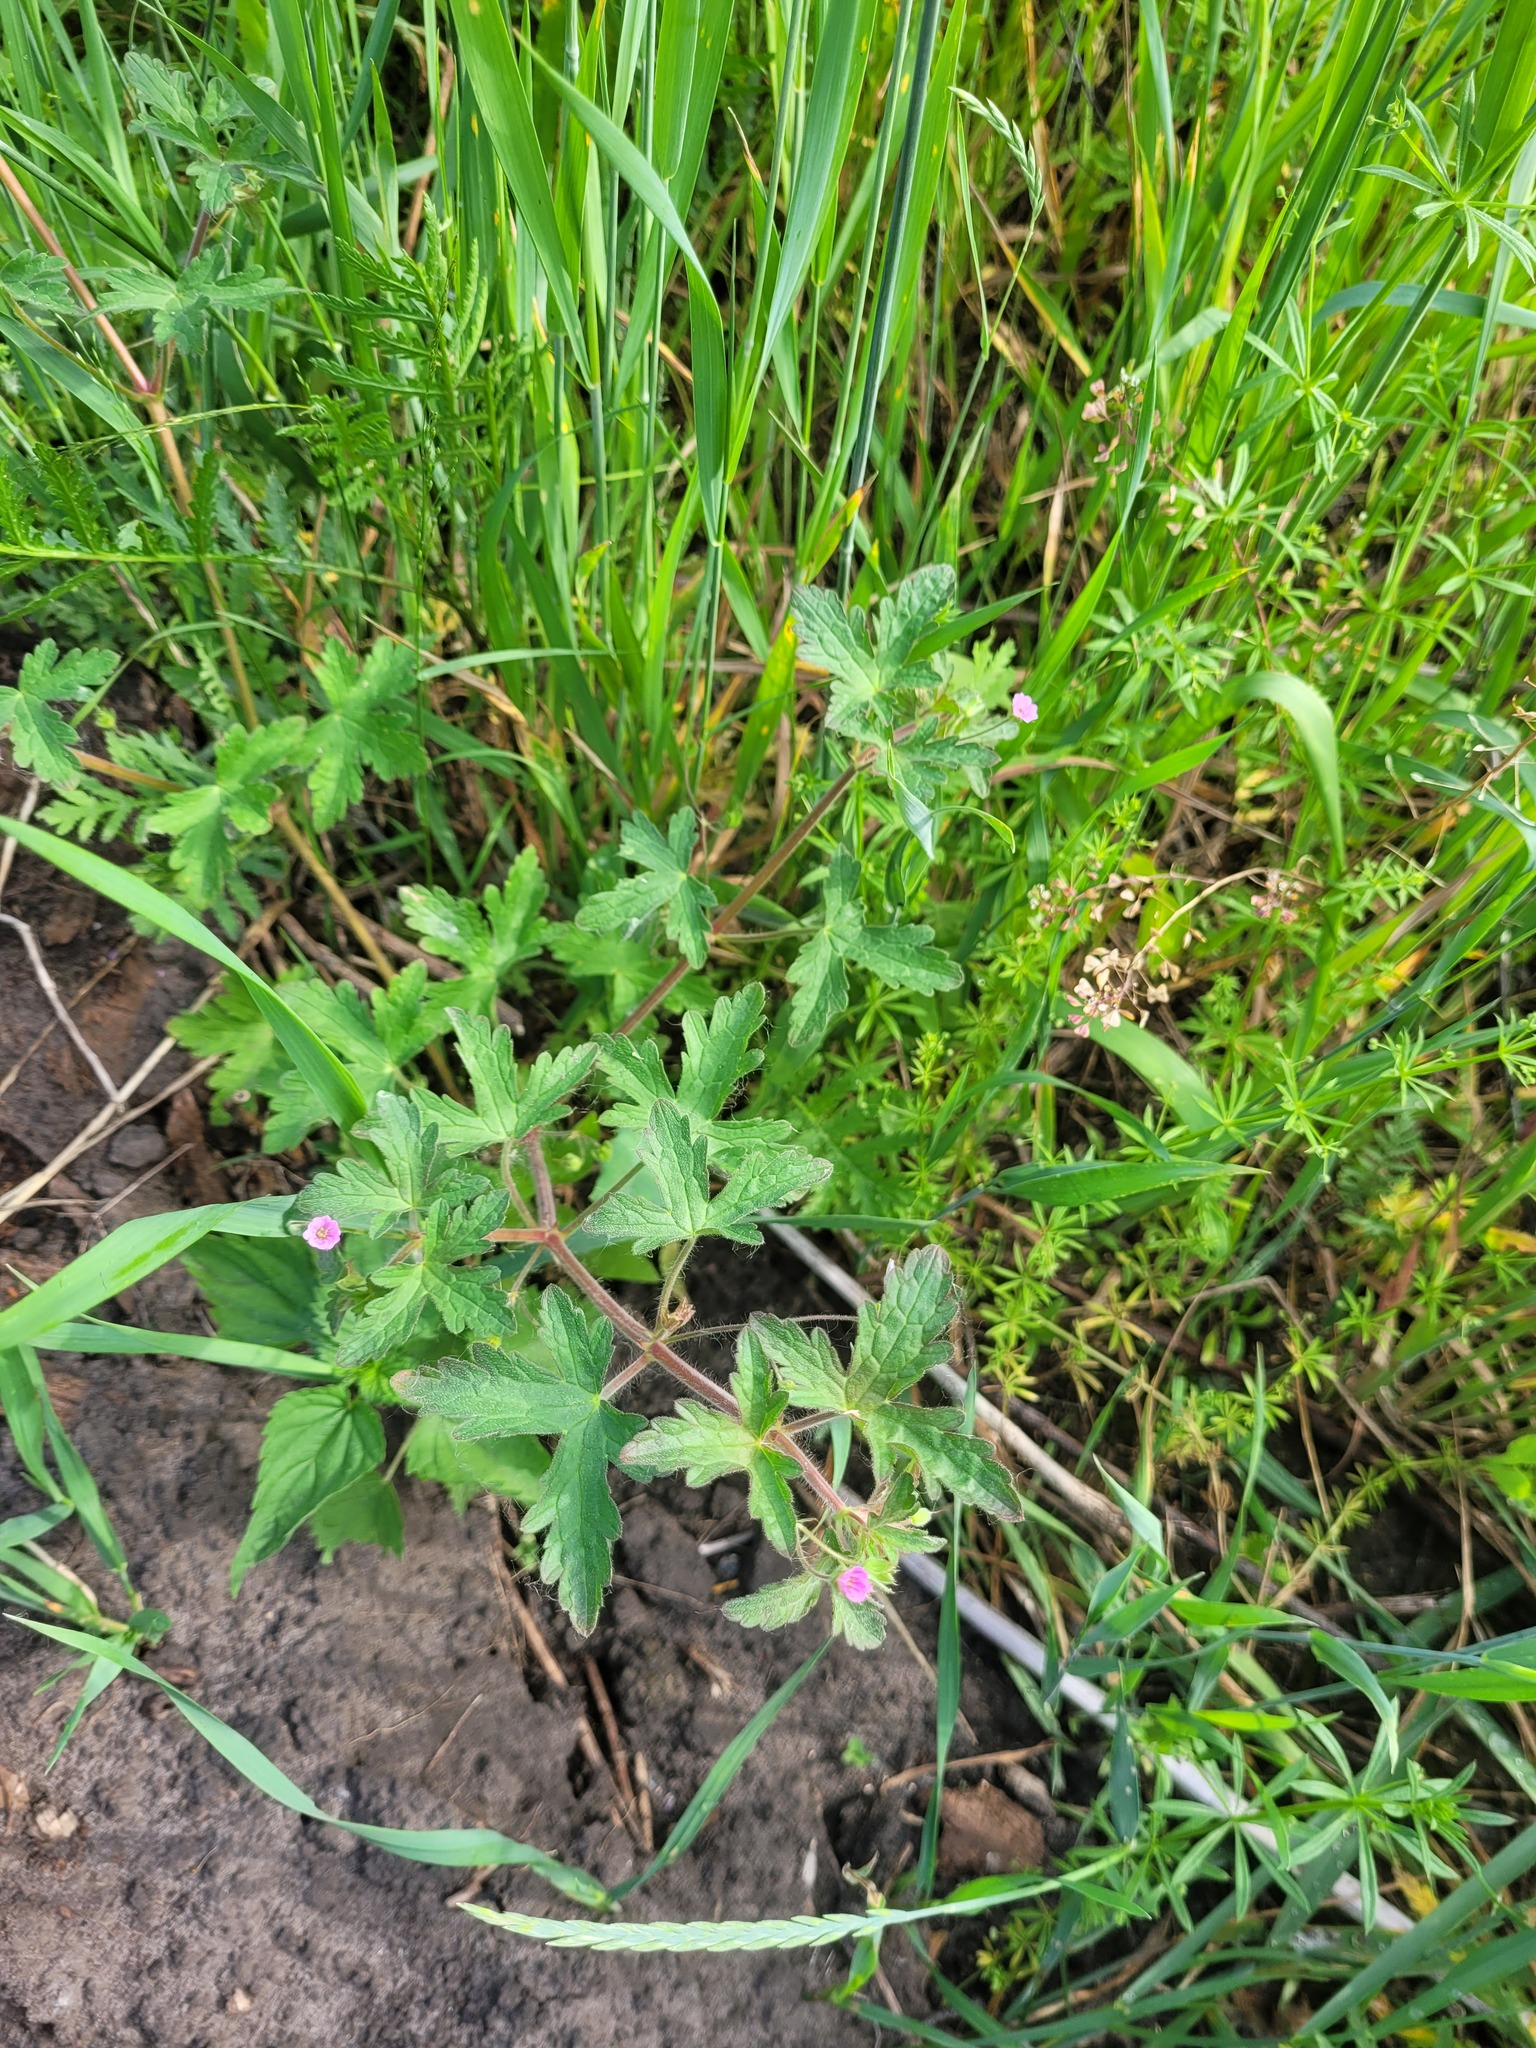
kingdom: Plantae
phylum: Tracheophyta
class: Magnoliopsida
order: Geraniales
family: Geraniaceae
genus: Geranium
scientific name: Geranium divaricatum
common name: Spreading crane's-bill
